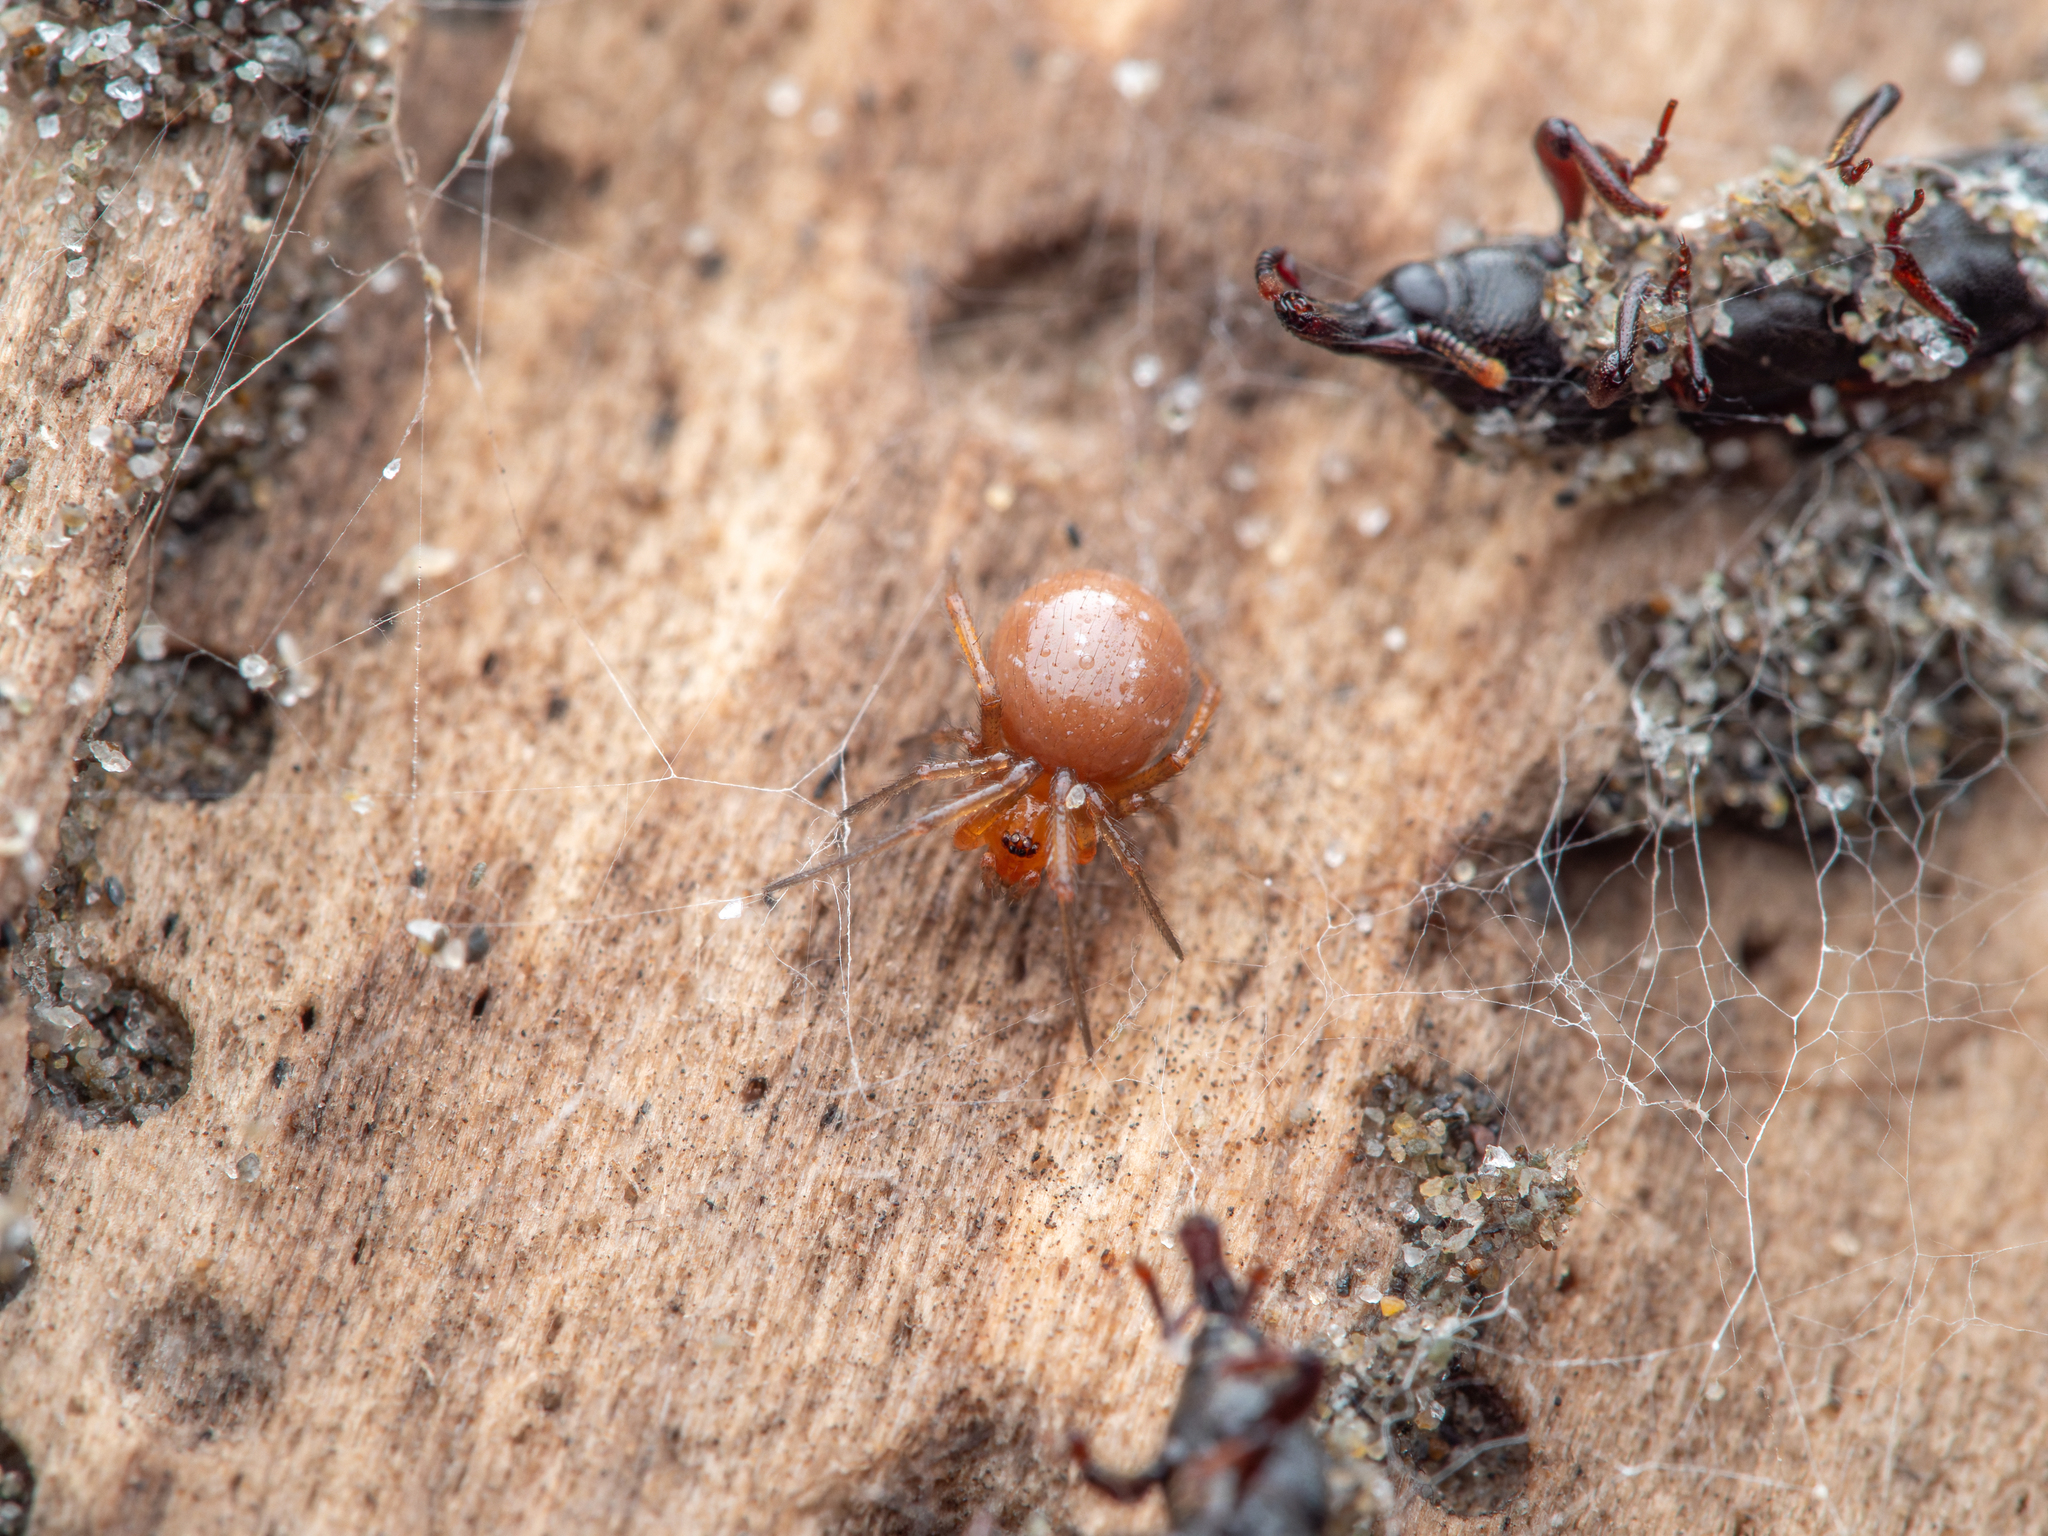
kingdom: Animalia
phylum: Arthropoda
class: Arachnida
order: Araneae
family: Theridiidae
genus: Steatoda
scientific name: Steatoda capensis
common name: Cobweb weaver
